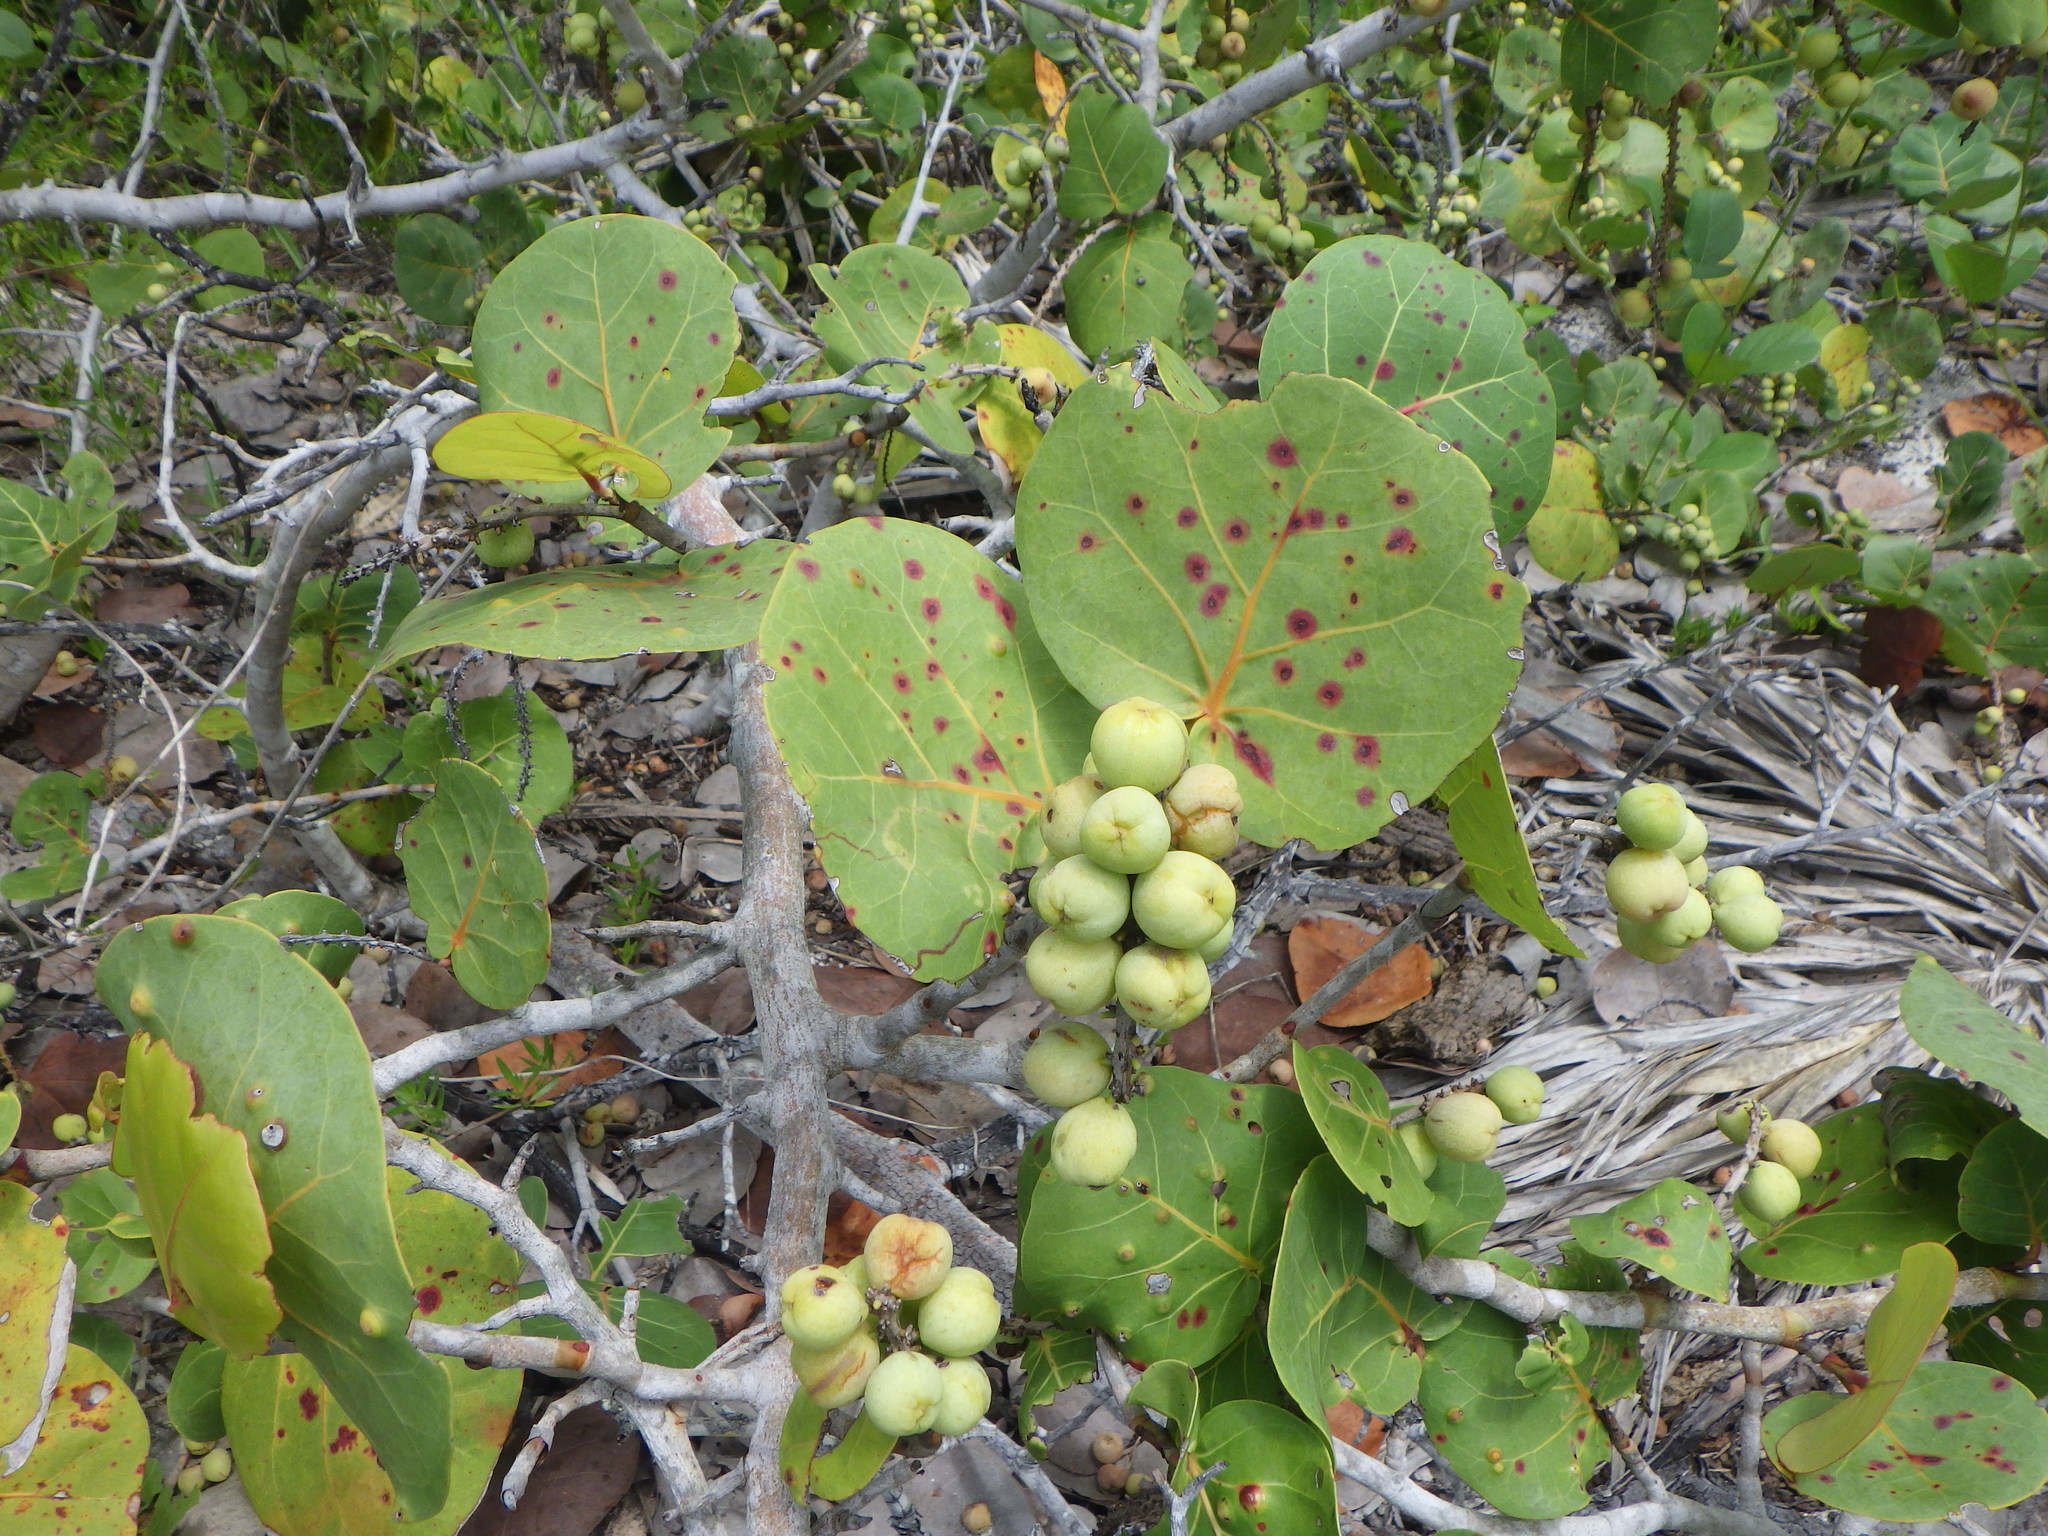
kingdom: Plantae
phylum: Tracheophyta
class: Magnoliopsida
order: Caryophyllales
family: Polygonaceae
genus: Coccoloba
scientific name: Coccoloba uvifera
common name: Seagrape
